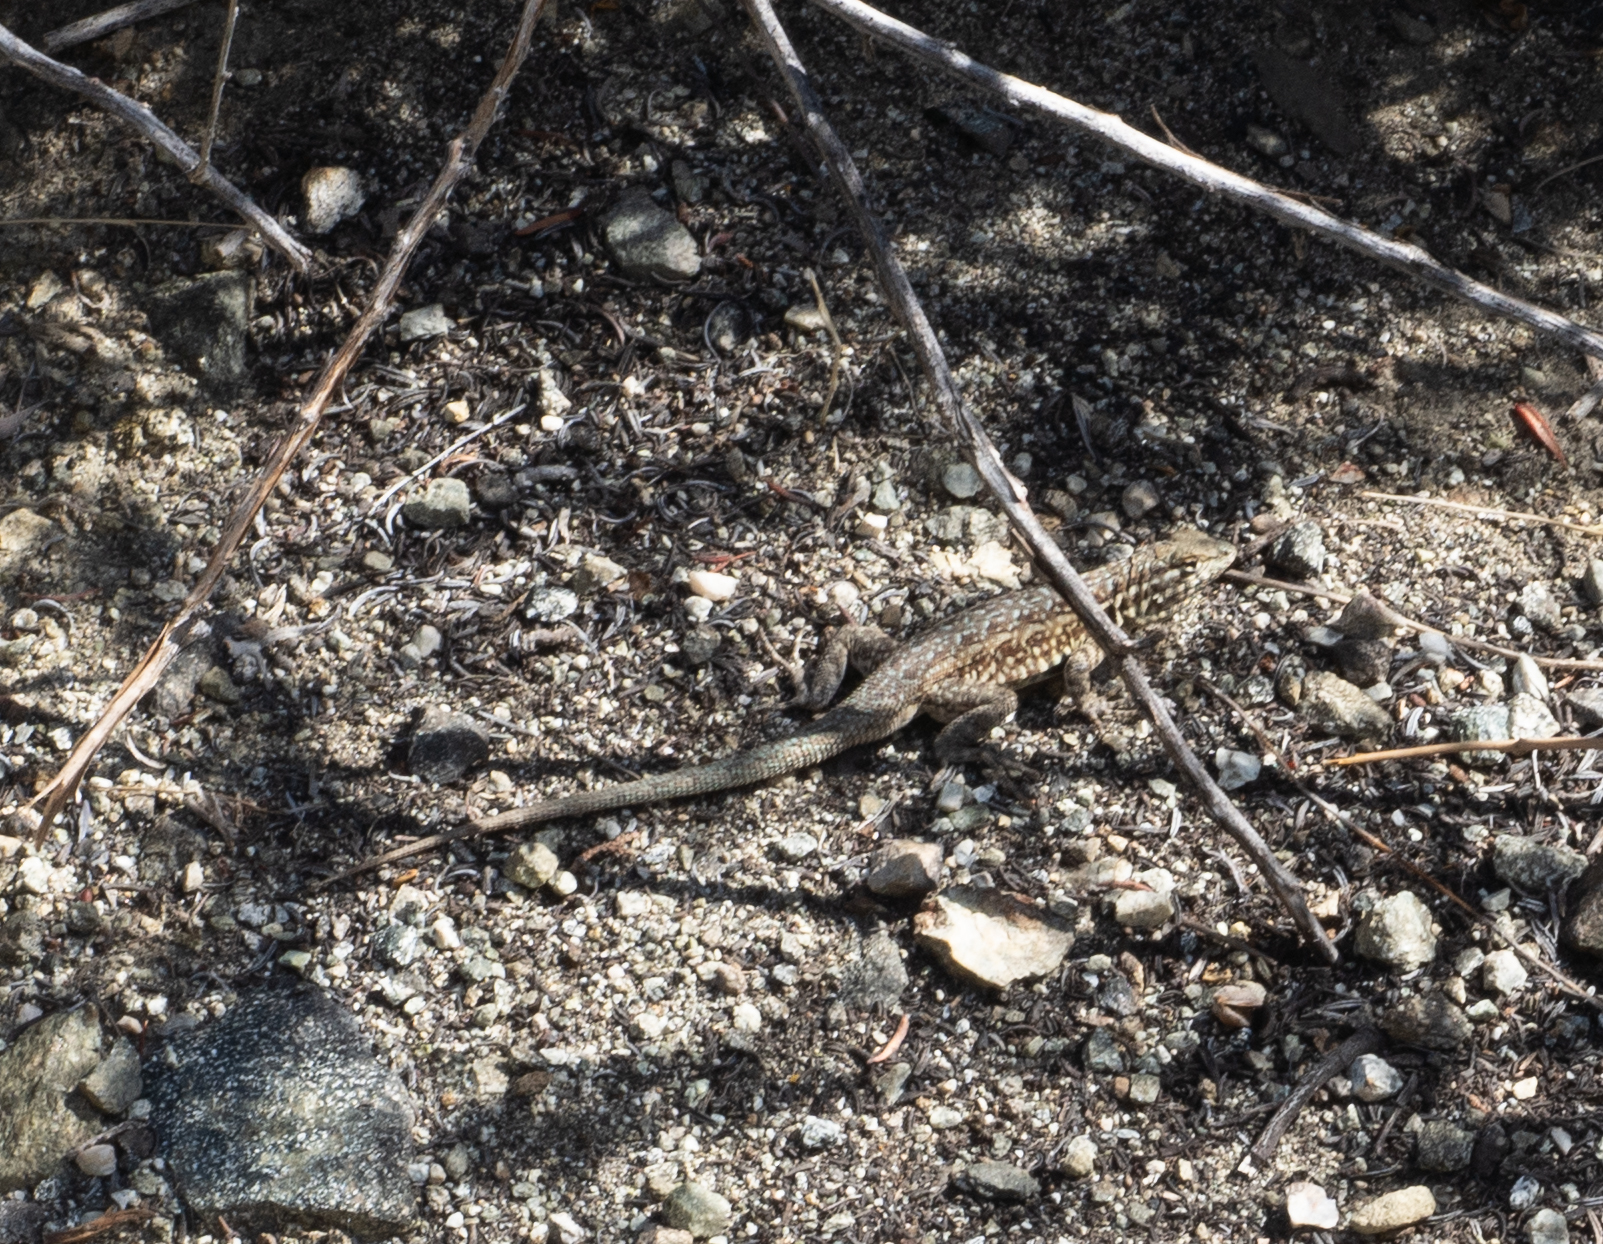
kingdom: Animalia
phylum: Chordata
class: Squamata
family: Phrynosomatidae
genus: Uta
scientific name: Uta stansburiana
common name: Side-blotched lizard
